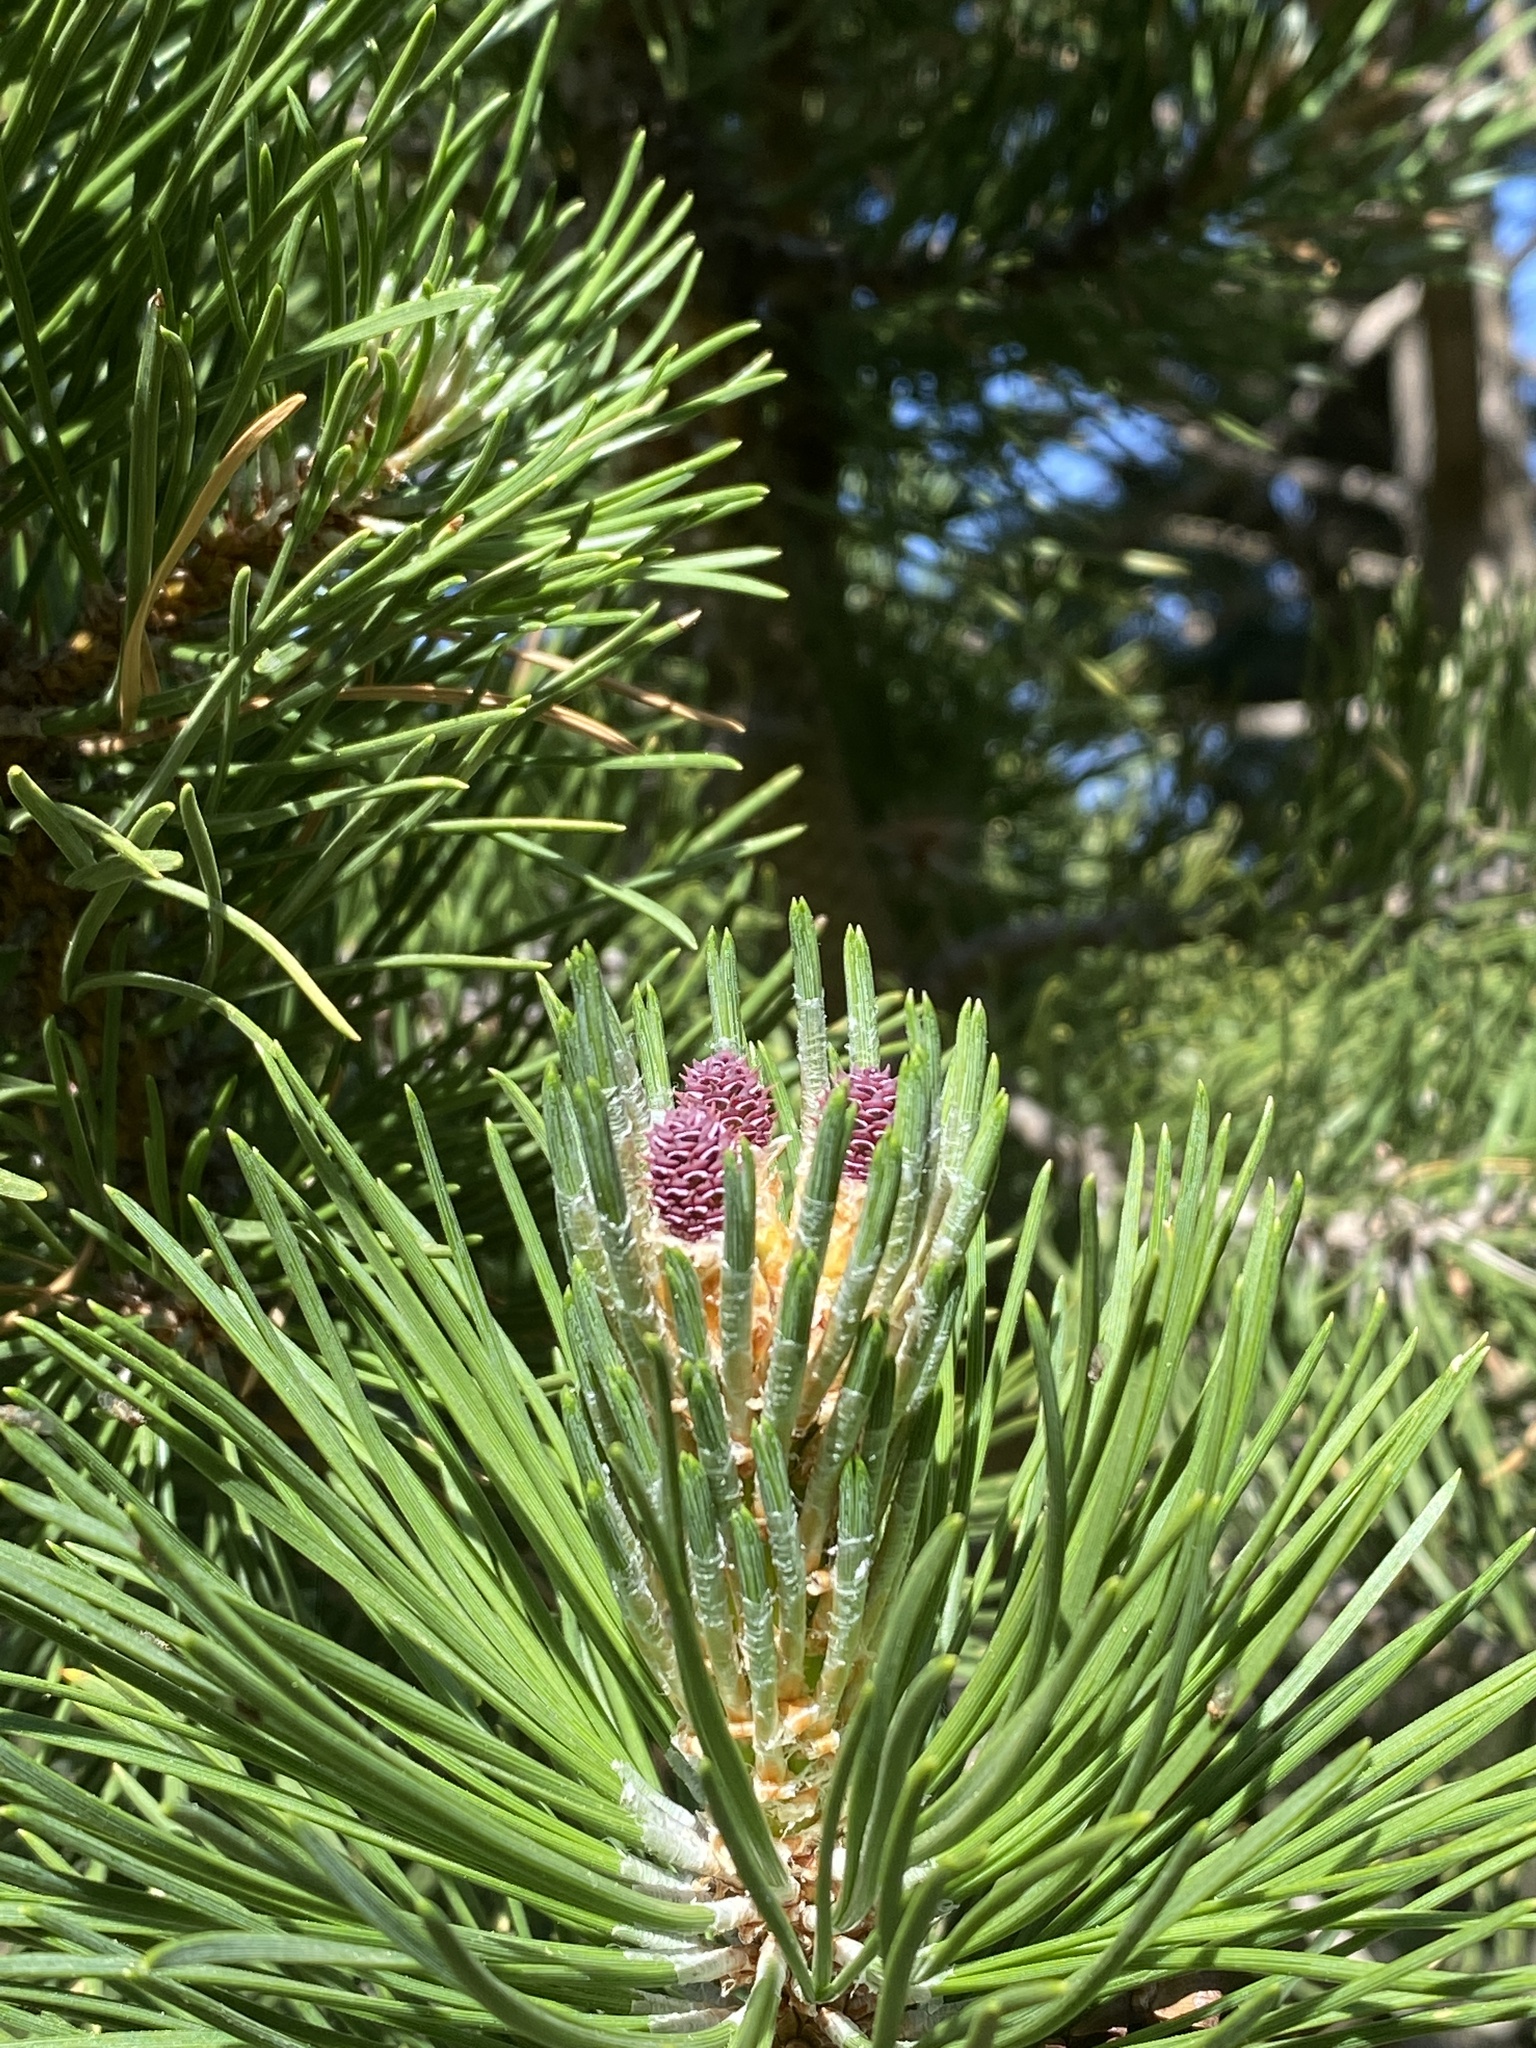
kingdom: Plantae
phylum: Tracheophyta
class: Pinopsida
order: Pinales
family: Pinaceae
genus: Pinus
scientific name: Pinus uncinata
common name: Mountain pine
